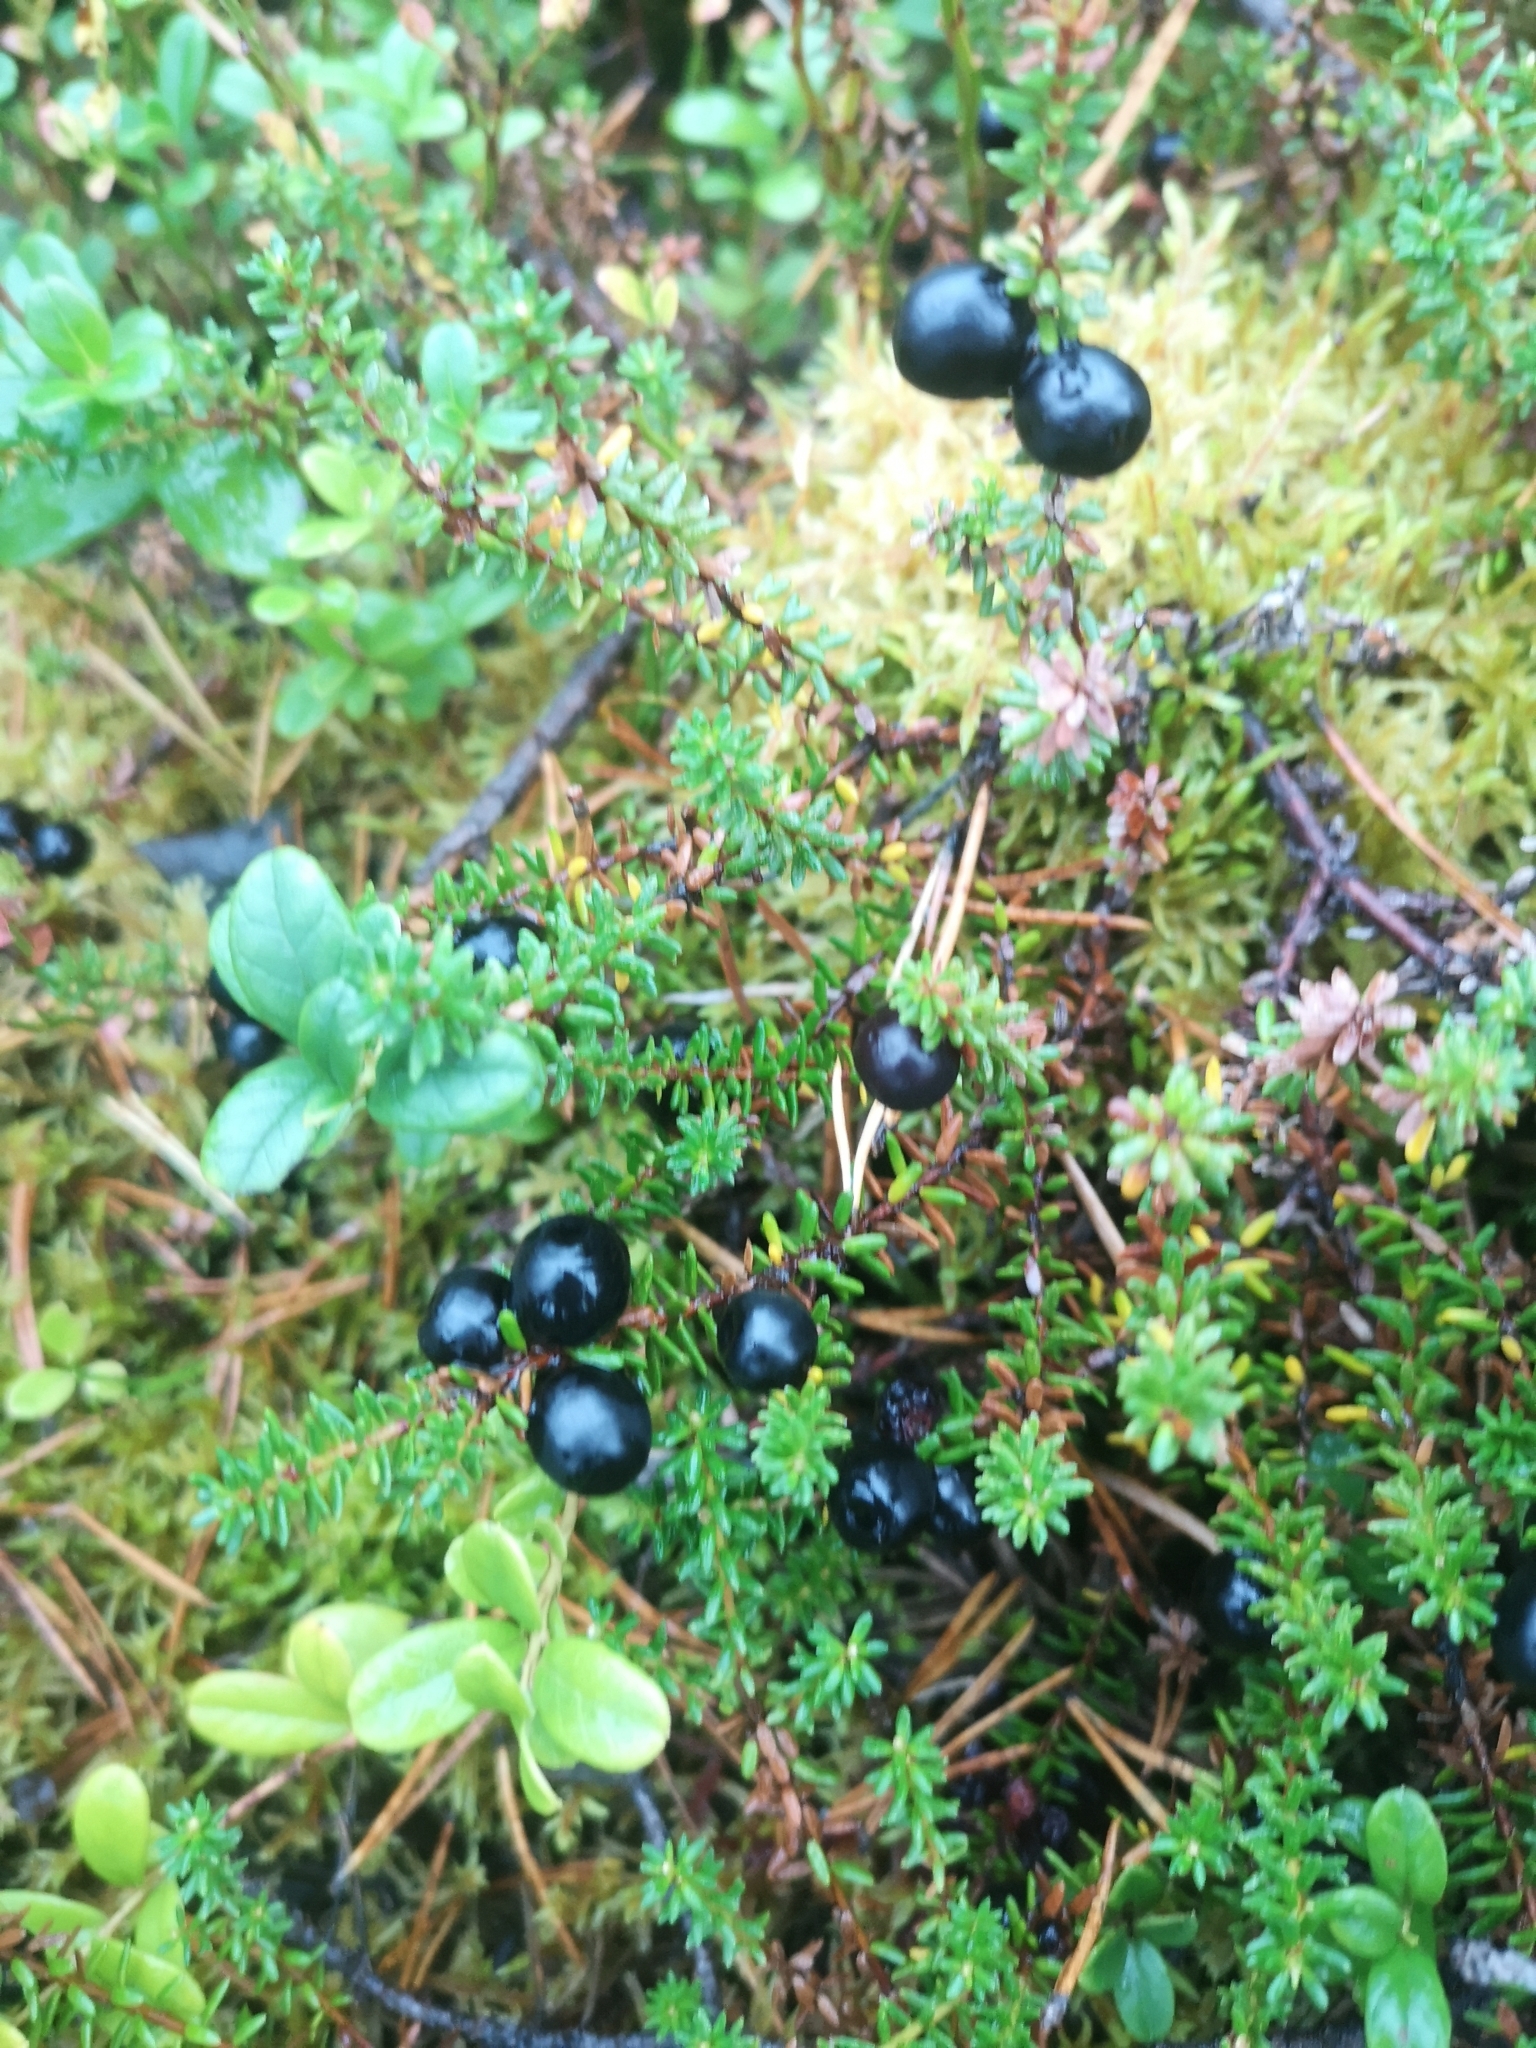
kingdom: Plantae
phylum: Tracheophyta
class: Magnoliopsida
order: Ericales
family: Ericaceae
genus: Empetrum
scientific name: Empetrum nigrum
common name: Black crowberry
